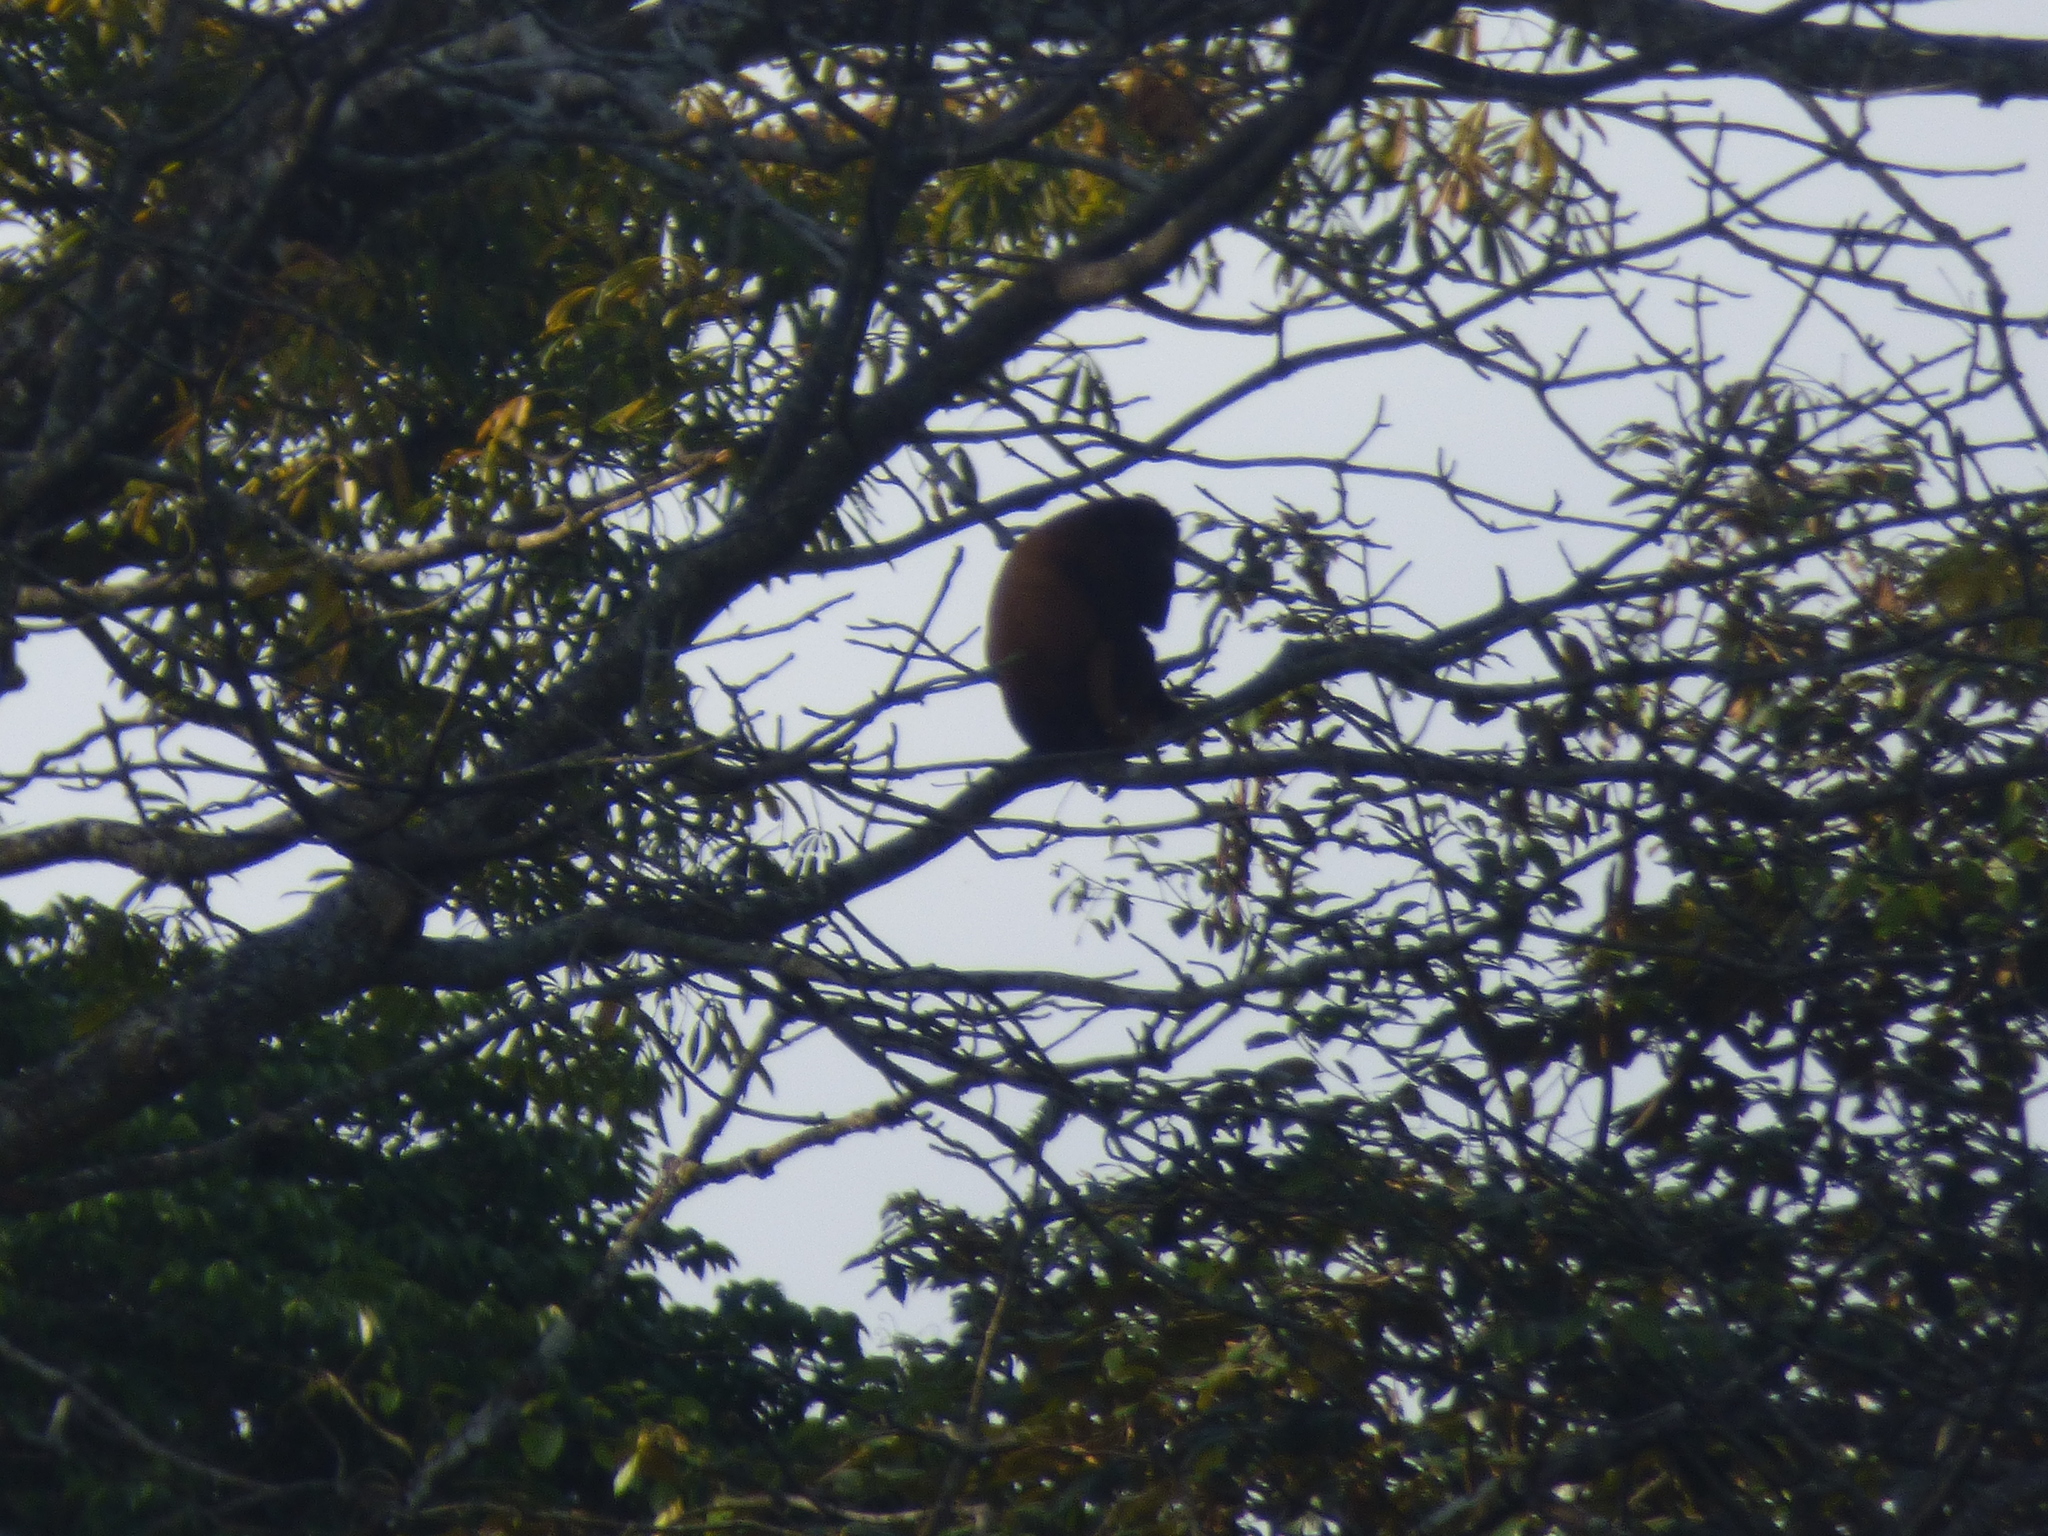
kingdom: Animalia
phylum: Chordata
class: Mammalia
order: Primates
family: Atelidae
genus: Alouatta
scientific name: Alouatta seniculus
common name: Venezuelan red howler
